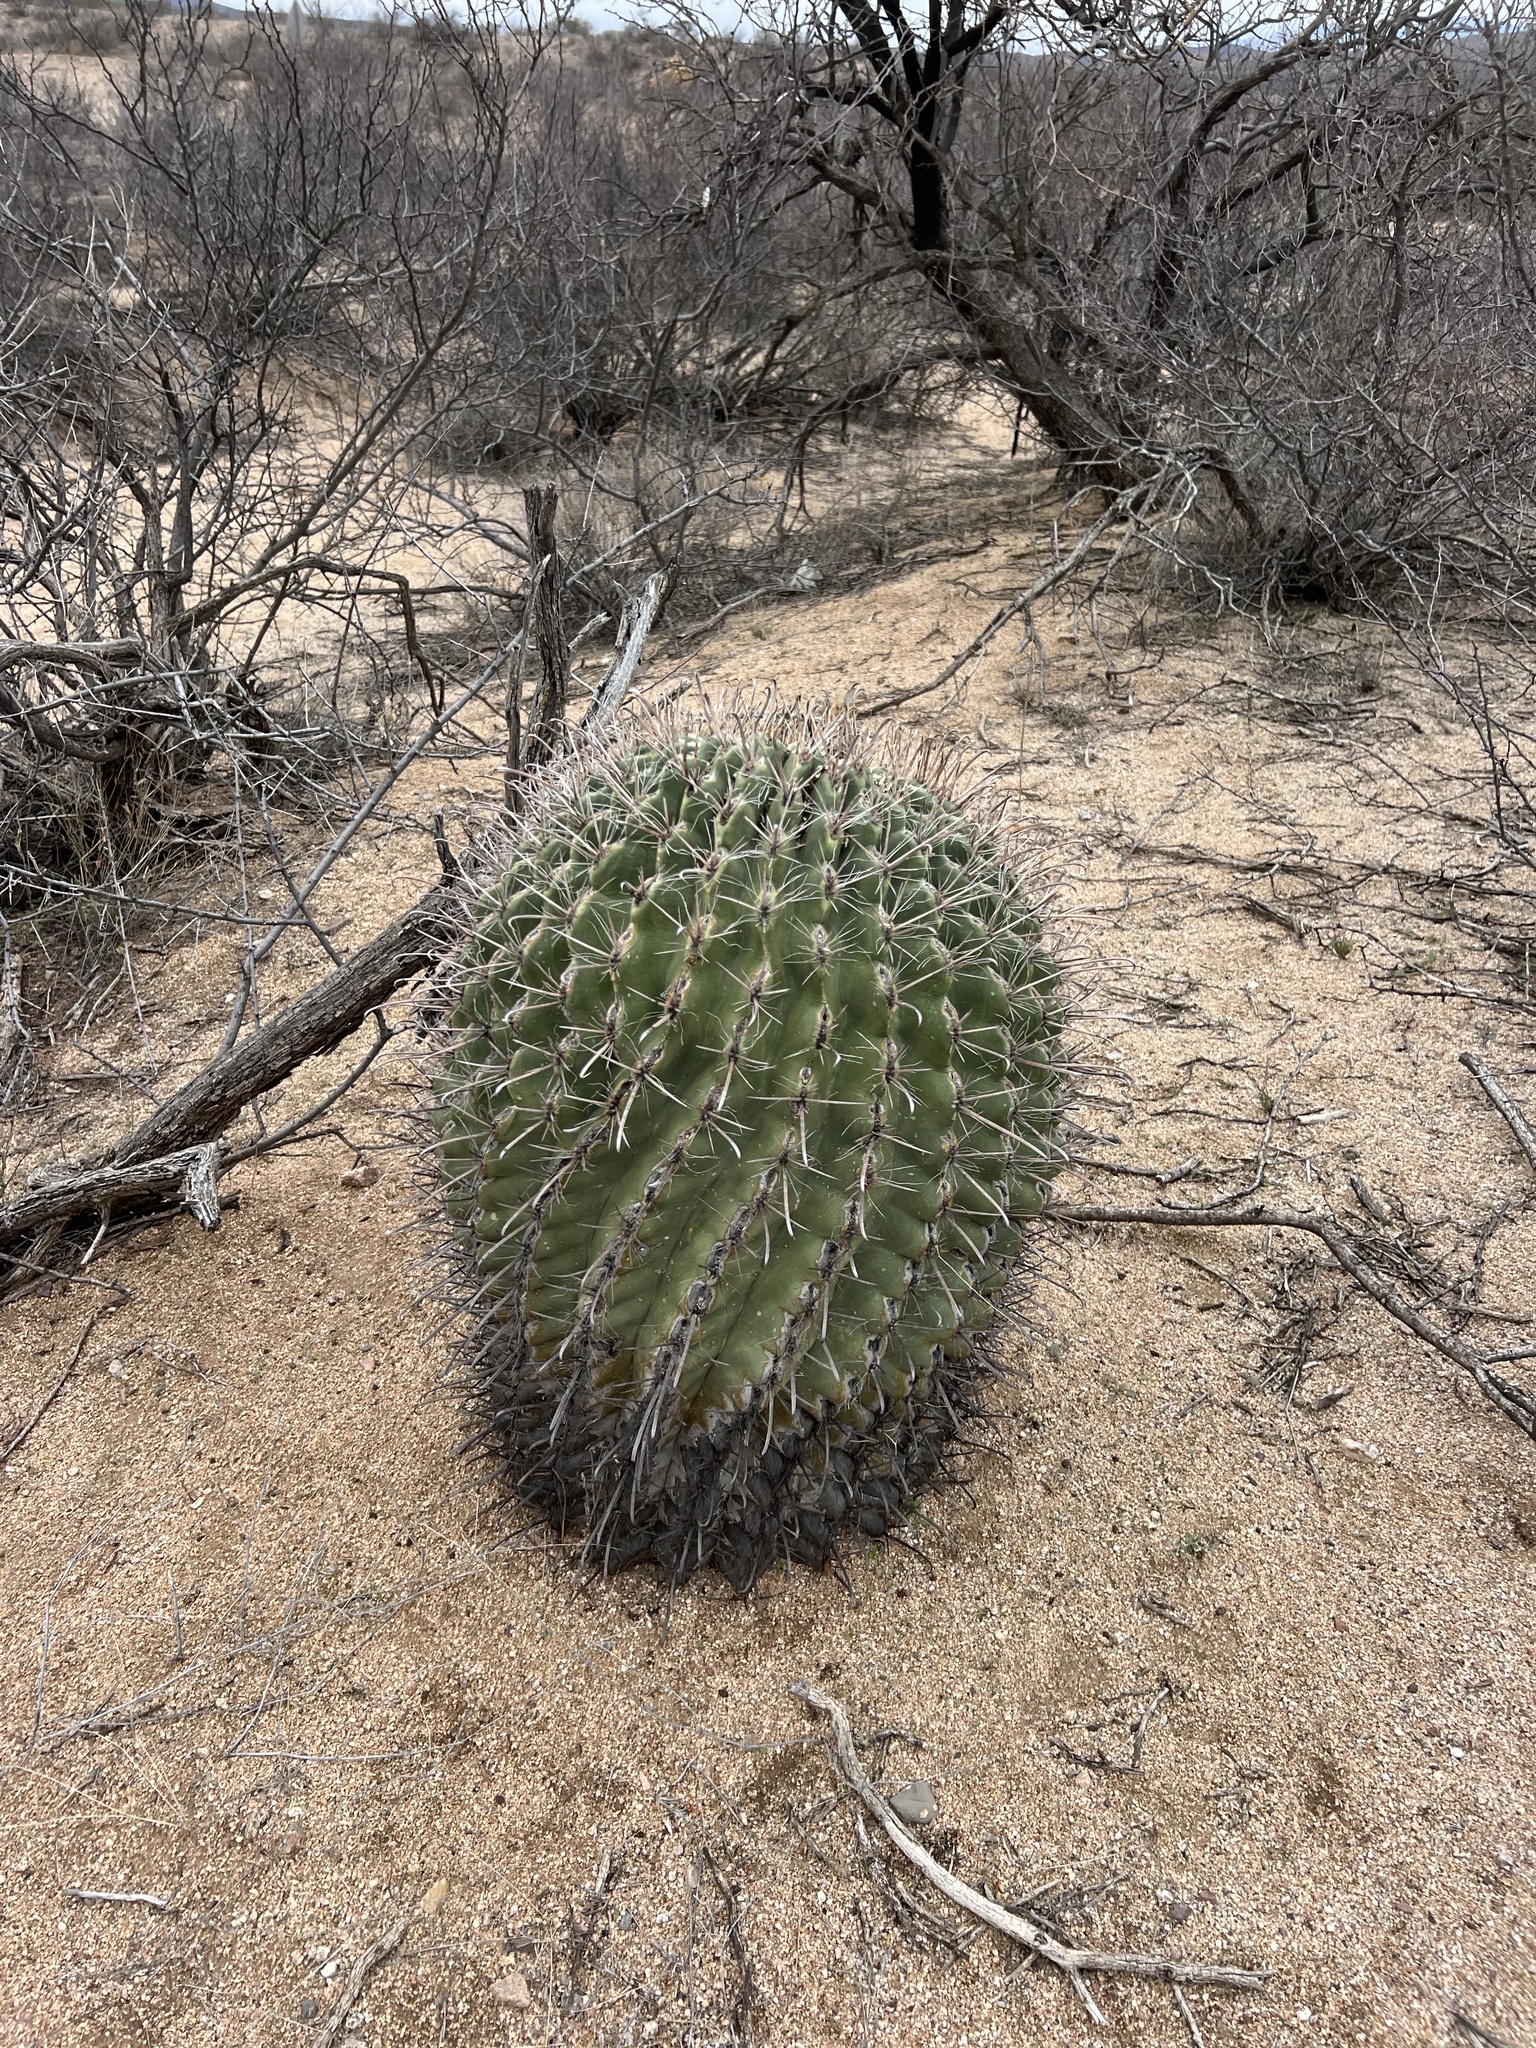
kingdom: Plantae
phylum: Tracheophyta
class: Magnoliopsida
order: Caryophyllales
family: Cactaceae
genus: Ferocactus
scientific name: Ferocactus wislizeni
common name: Candy barrel cactus
